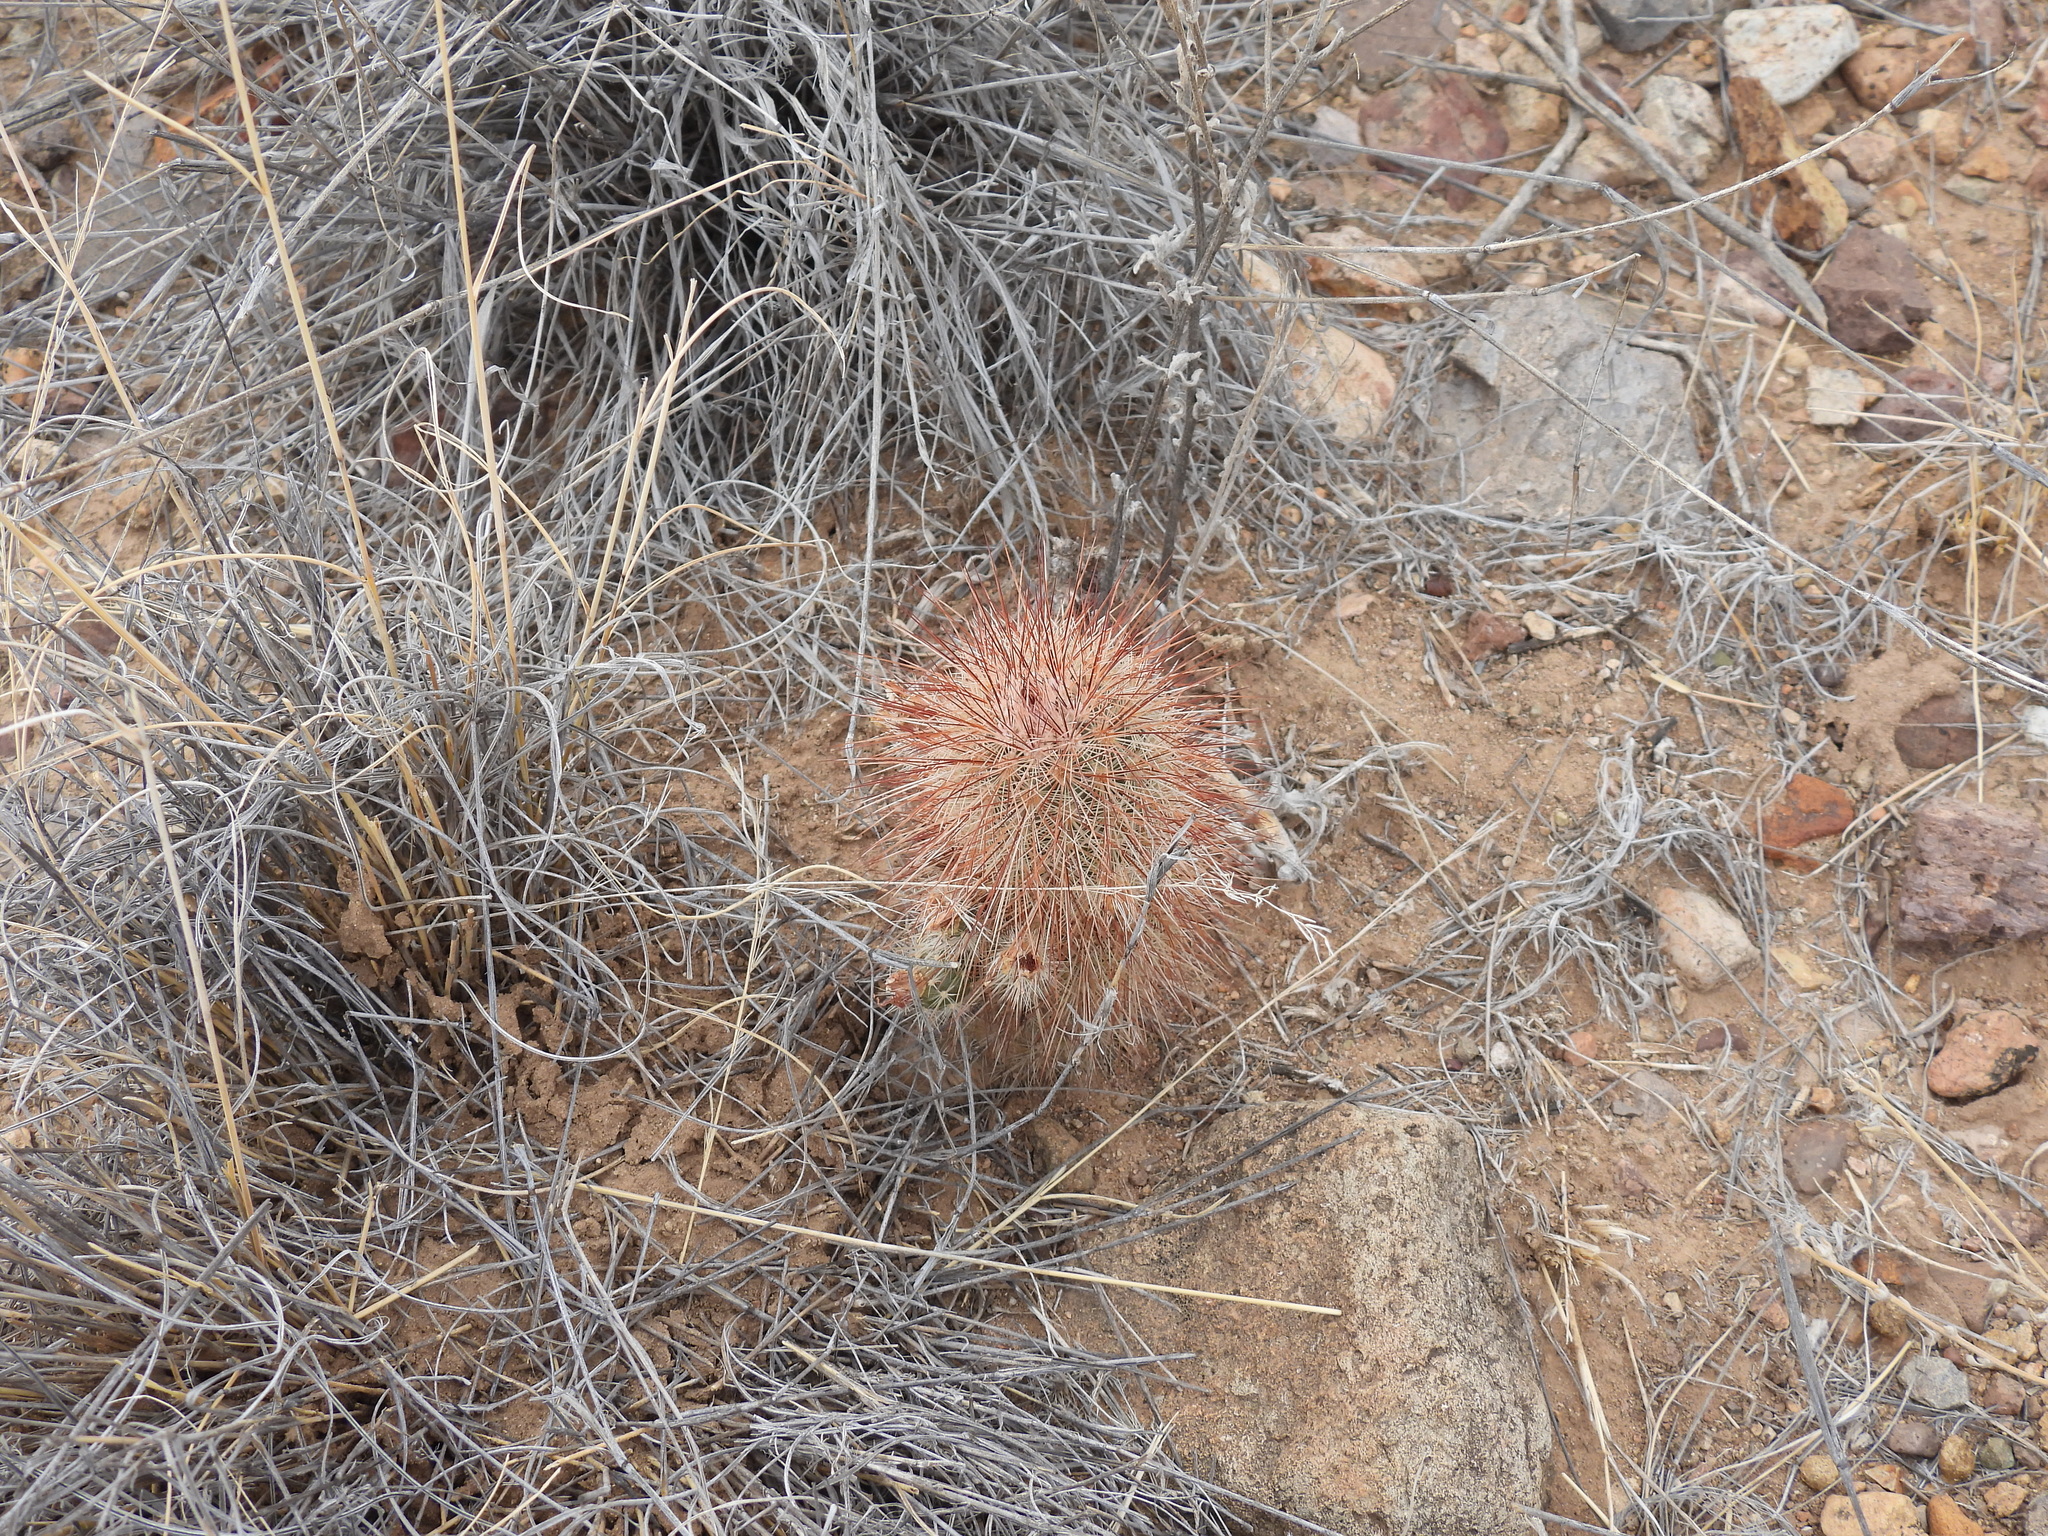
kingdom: Plantae
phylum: Tracheophyta
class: Magnoliopsida
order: Caryophyllales
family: Cactaceae
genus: Echinocereus
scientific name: Echinocereus russanthus
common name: Brownspine hedgehog cactus
